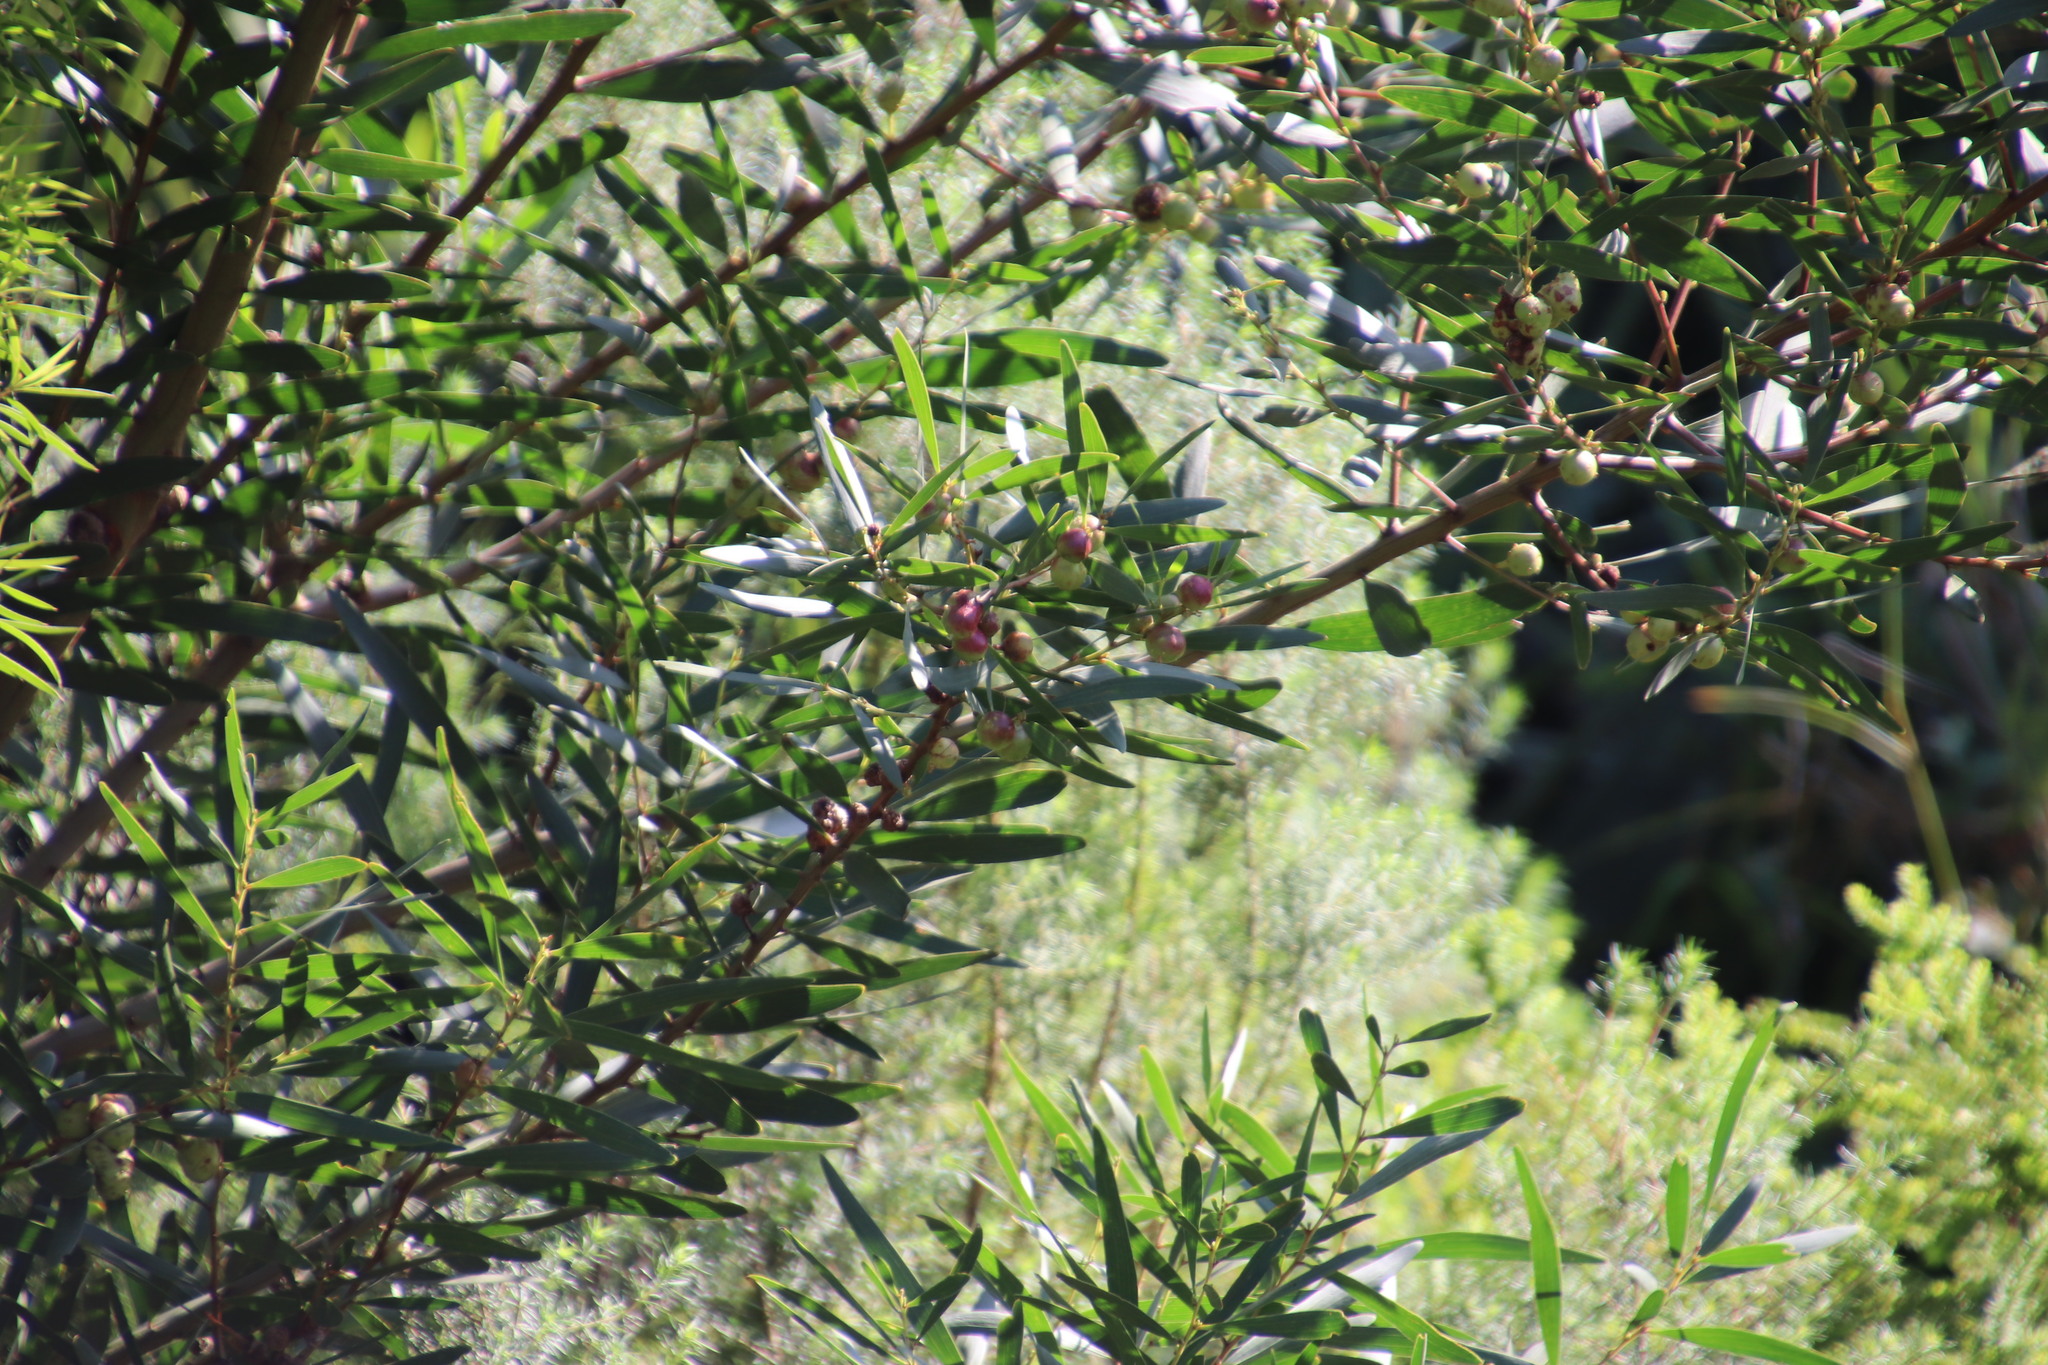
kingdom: Plantae
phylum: Tracheophyta
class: Magnoliopsida
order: Fabales
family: Fabaceae
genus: Acacia
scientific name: Acacia longifolia
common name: Sydney golden wattle
